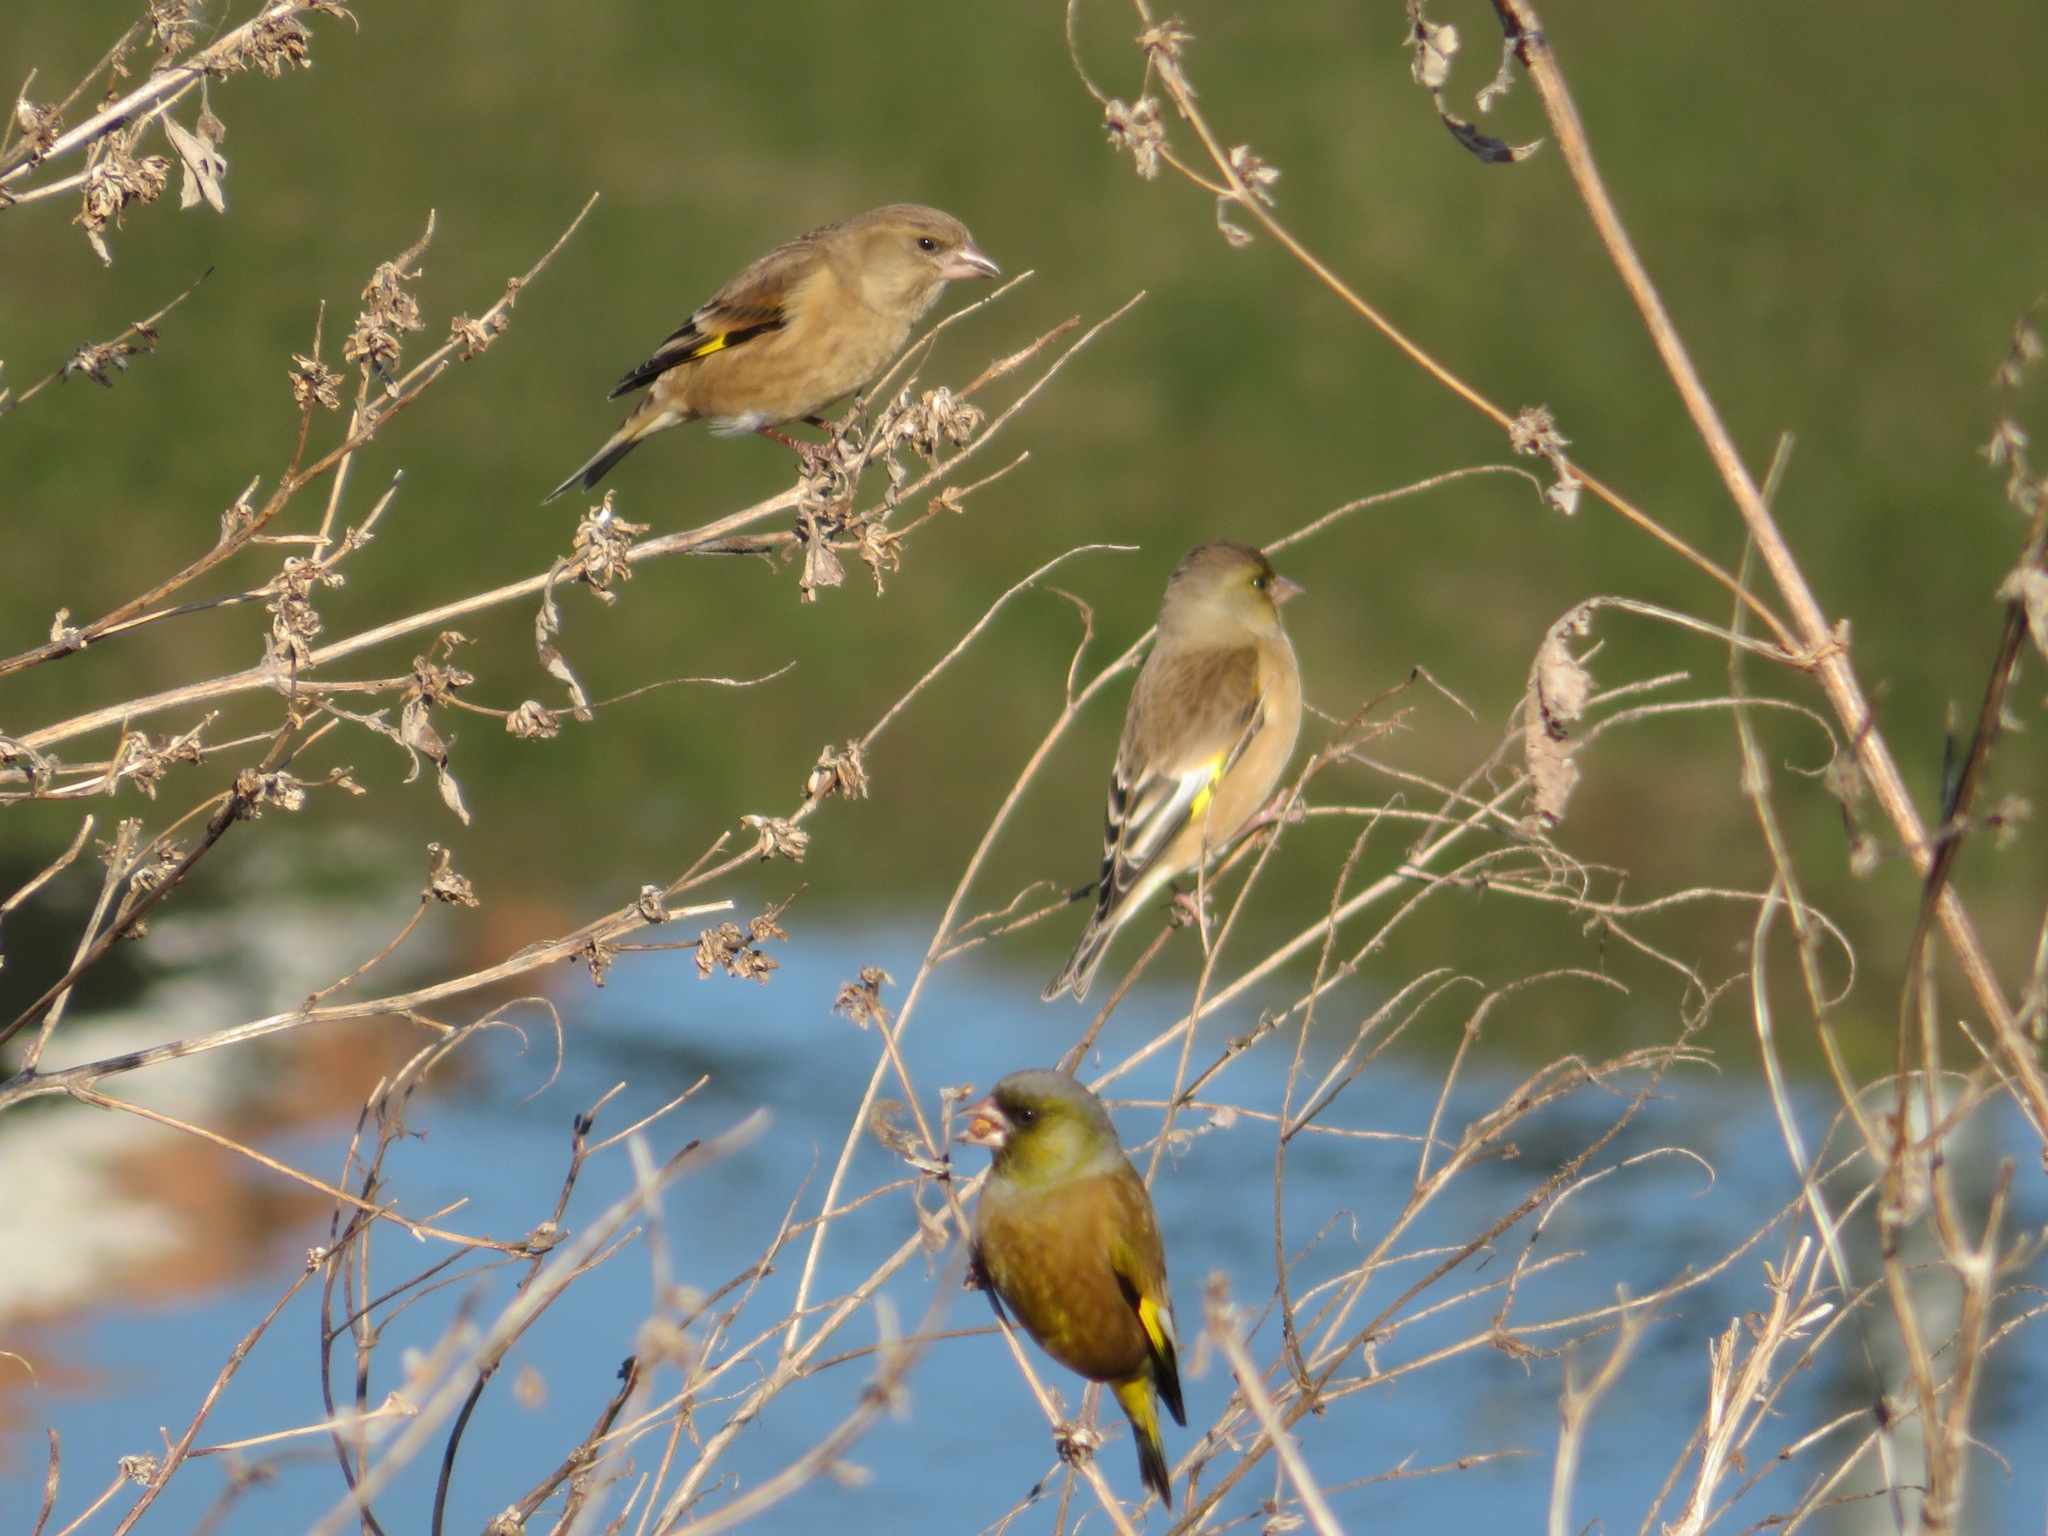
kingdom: Plantae
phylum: Tracheophyta
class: Liliopsida
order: Poales
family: Poaceae
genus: Chloris
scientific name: Chloris sinica
